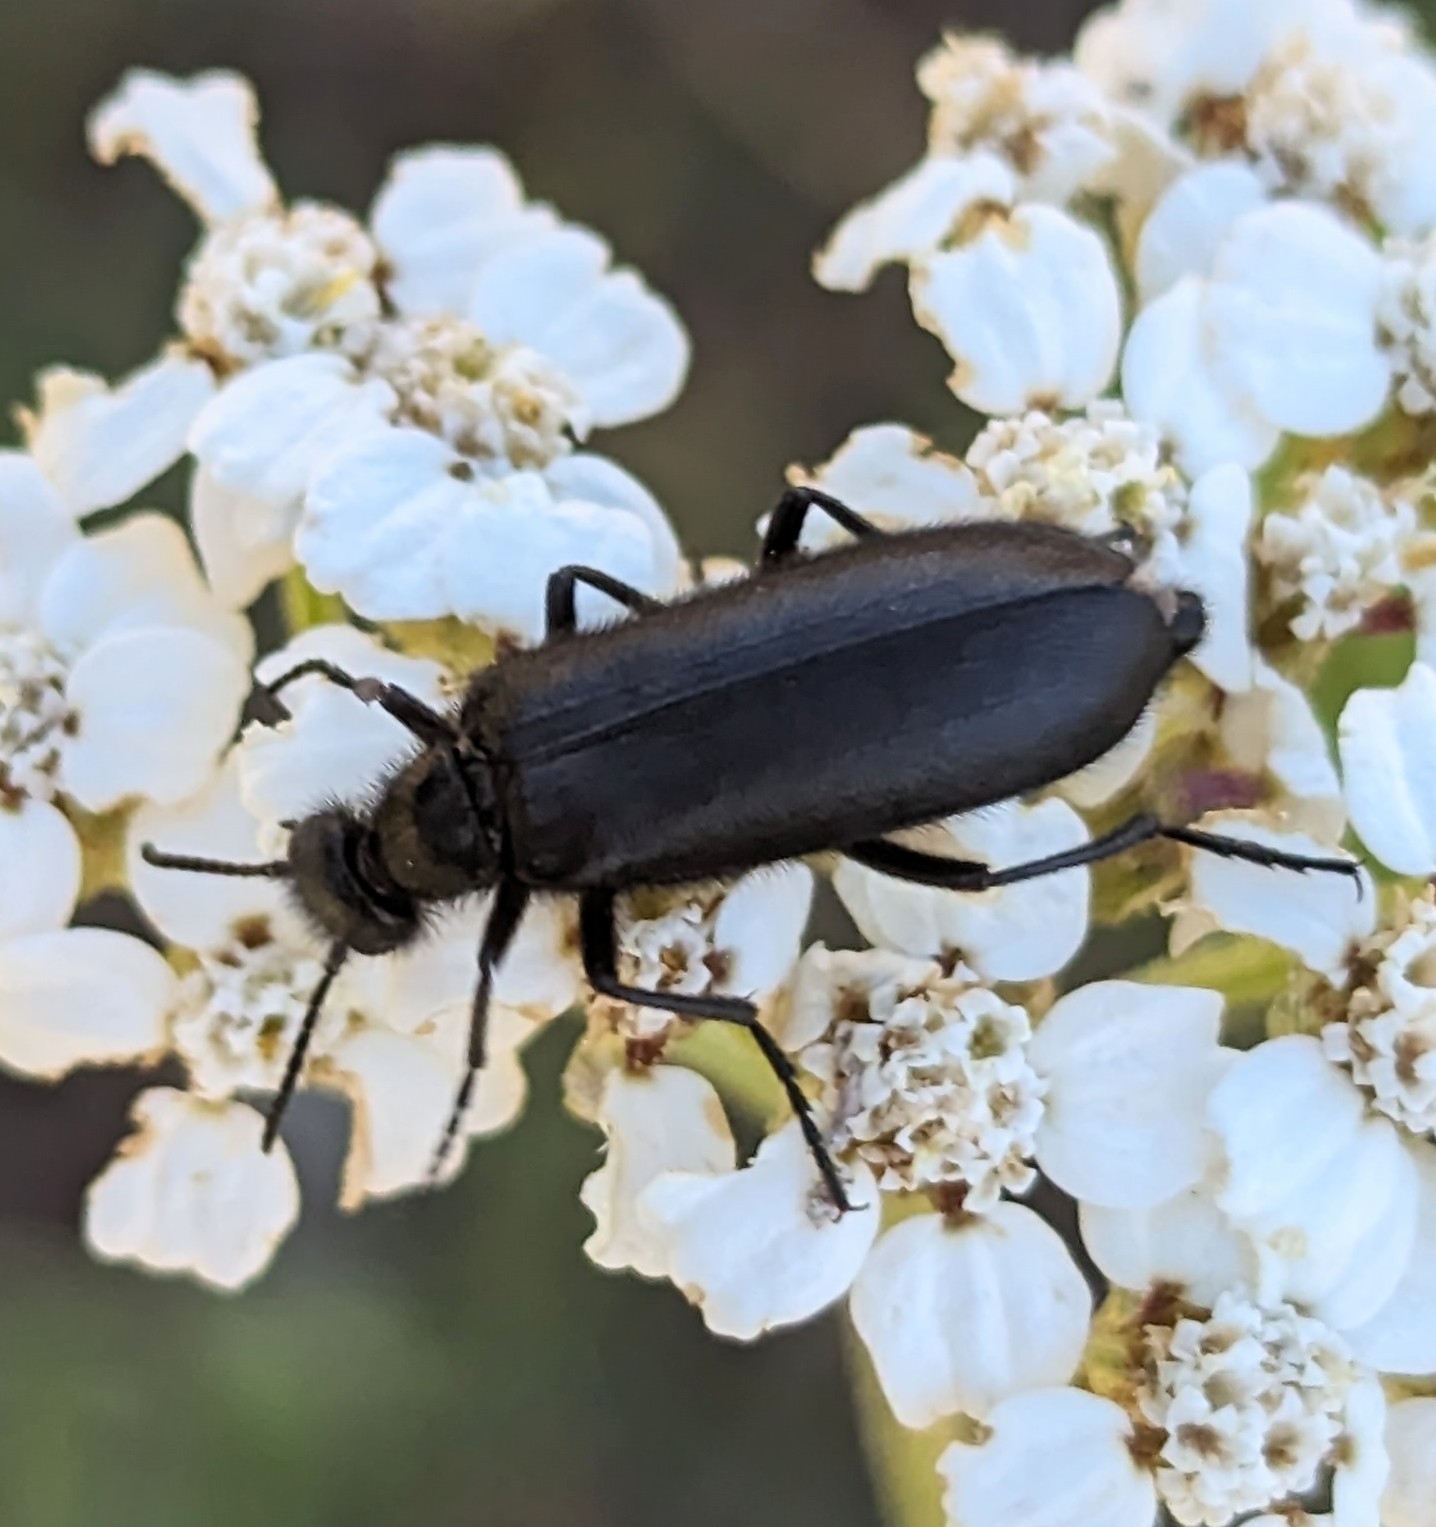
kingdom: Animalia
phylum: Arthropoda
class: Insecta
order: Coleoptera
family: Meloidae
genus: Epicauta
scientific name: Epicauta puncticollis
